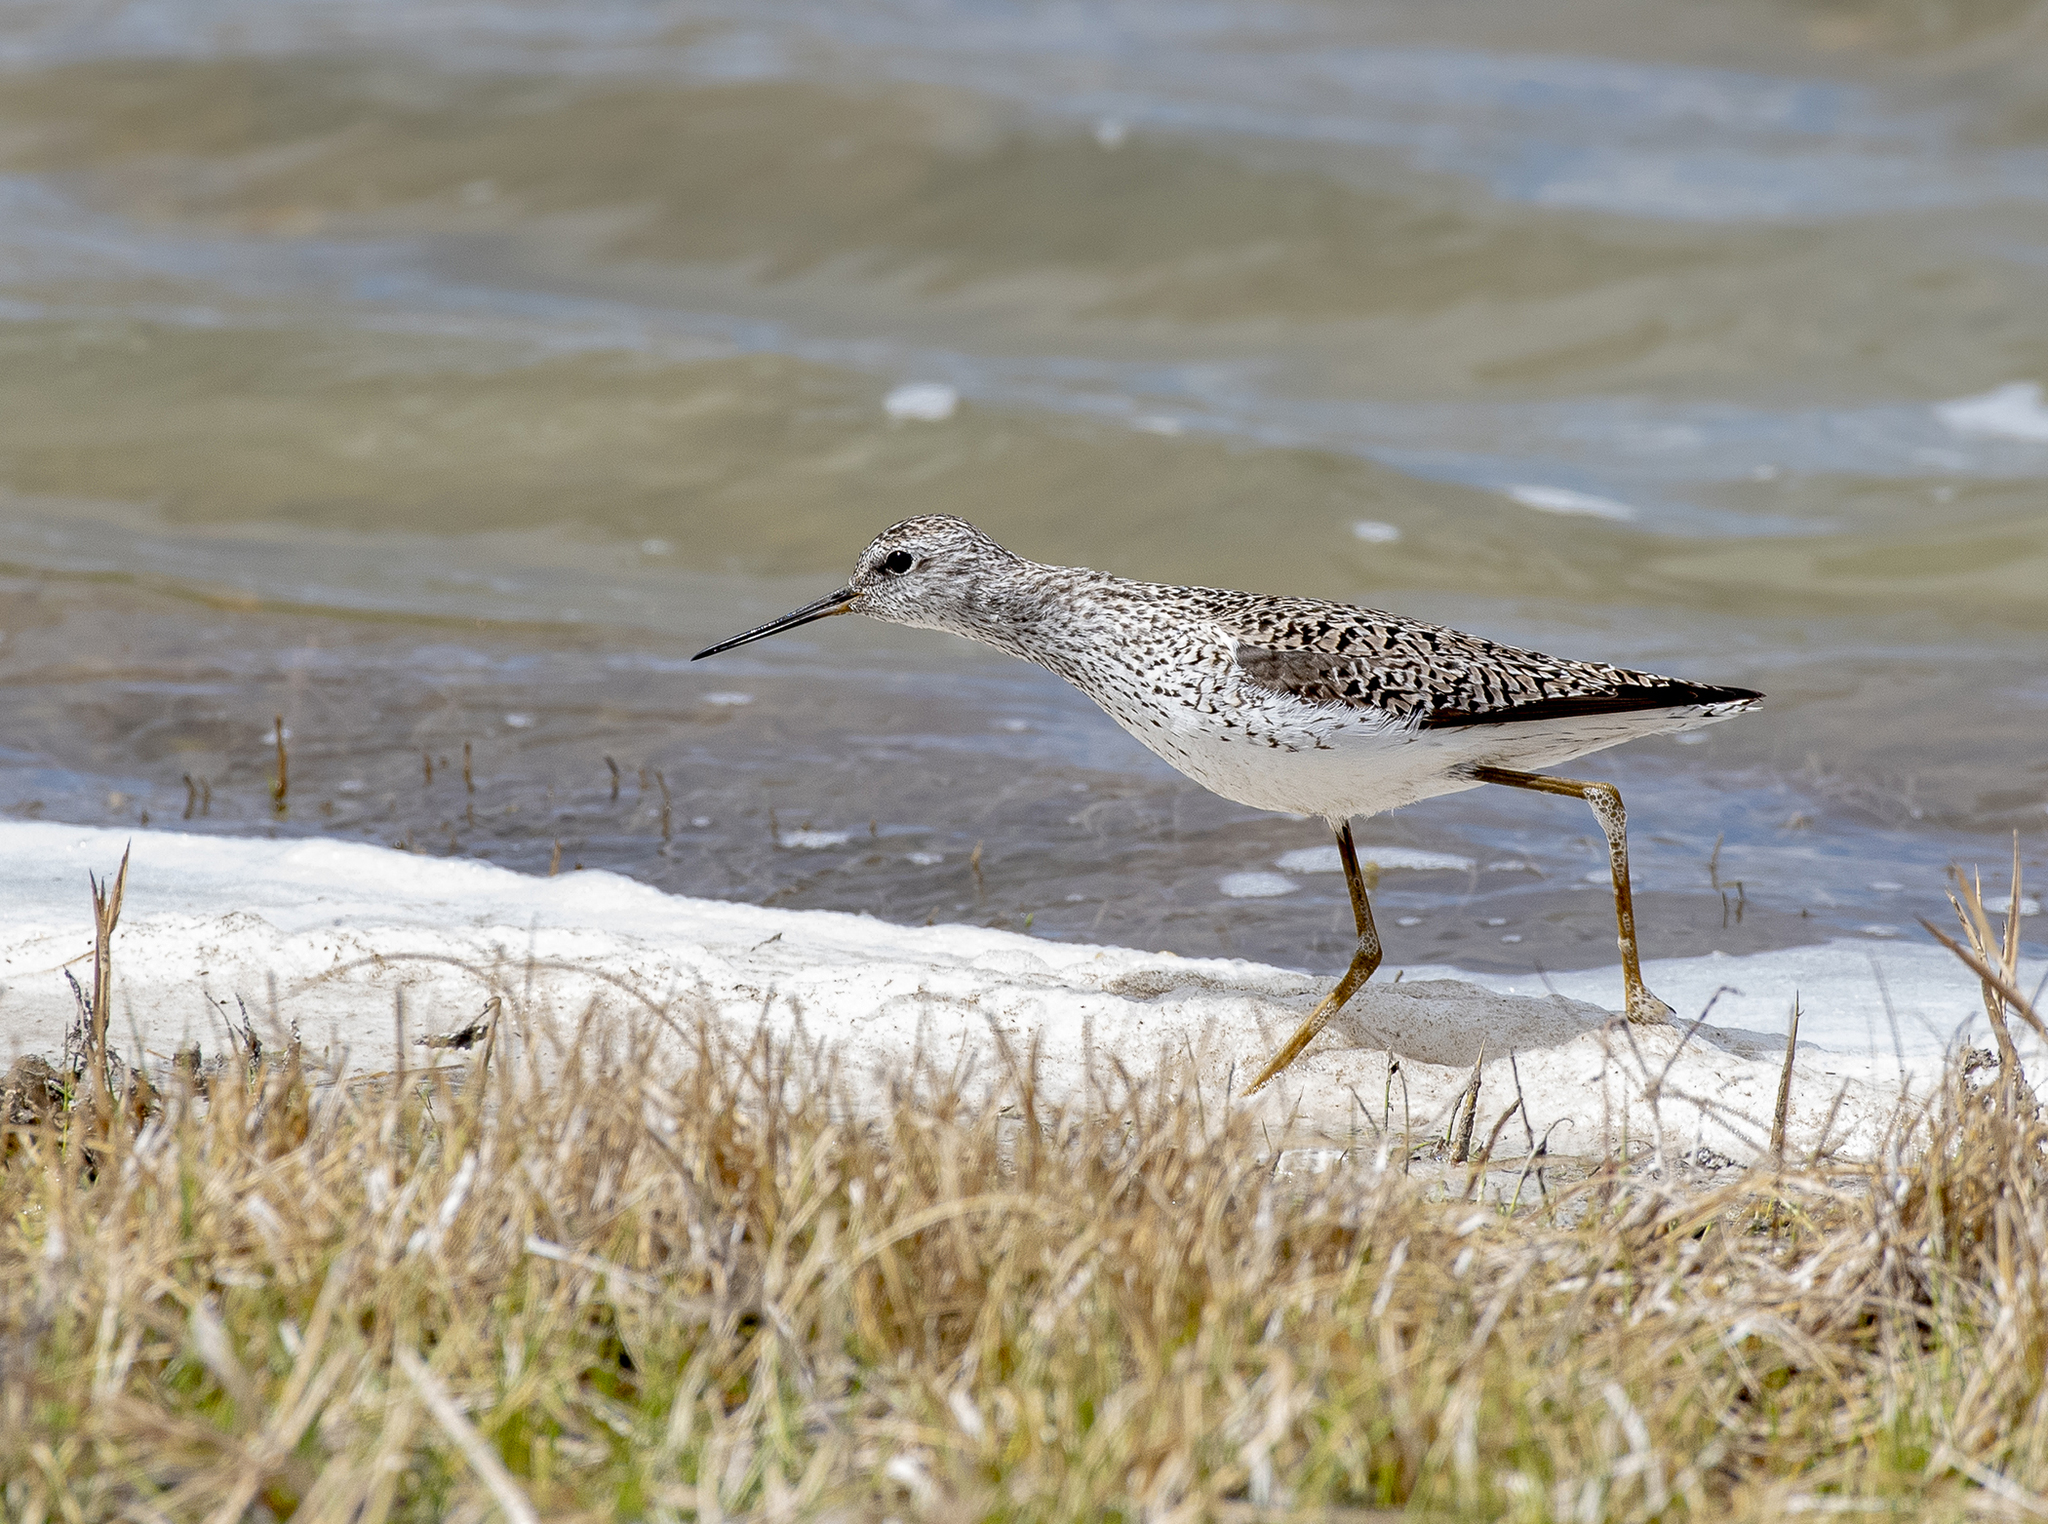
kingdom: Animalia
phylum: Chordata
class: Aves
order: Charadriiformes
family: Scolopacidae
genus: Tringa
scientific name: Tringa stagnatilis
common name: Marsh sandpiper
